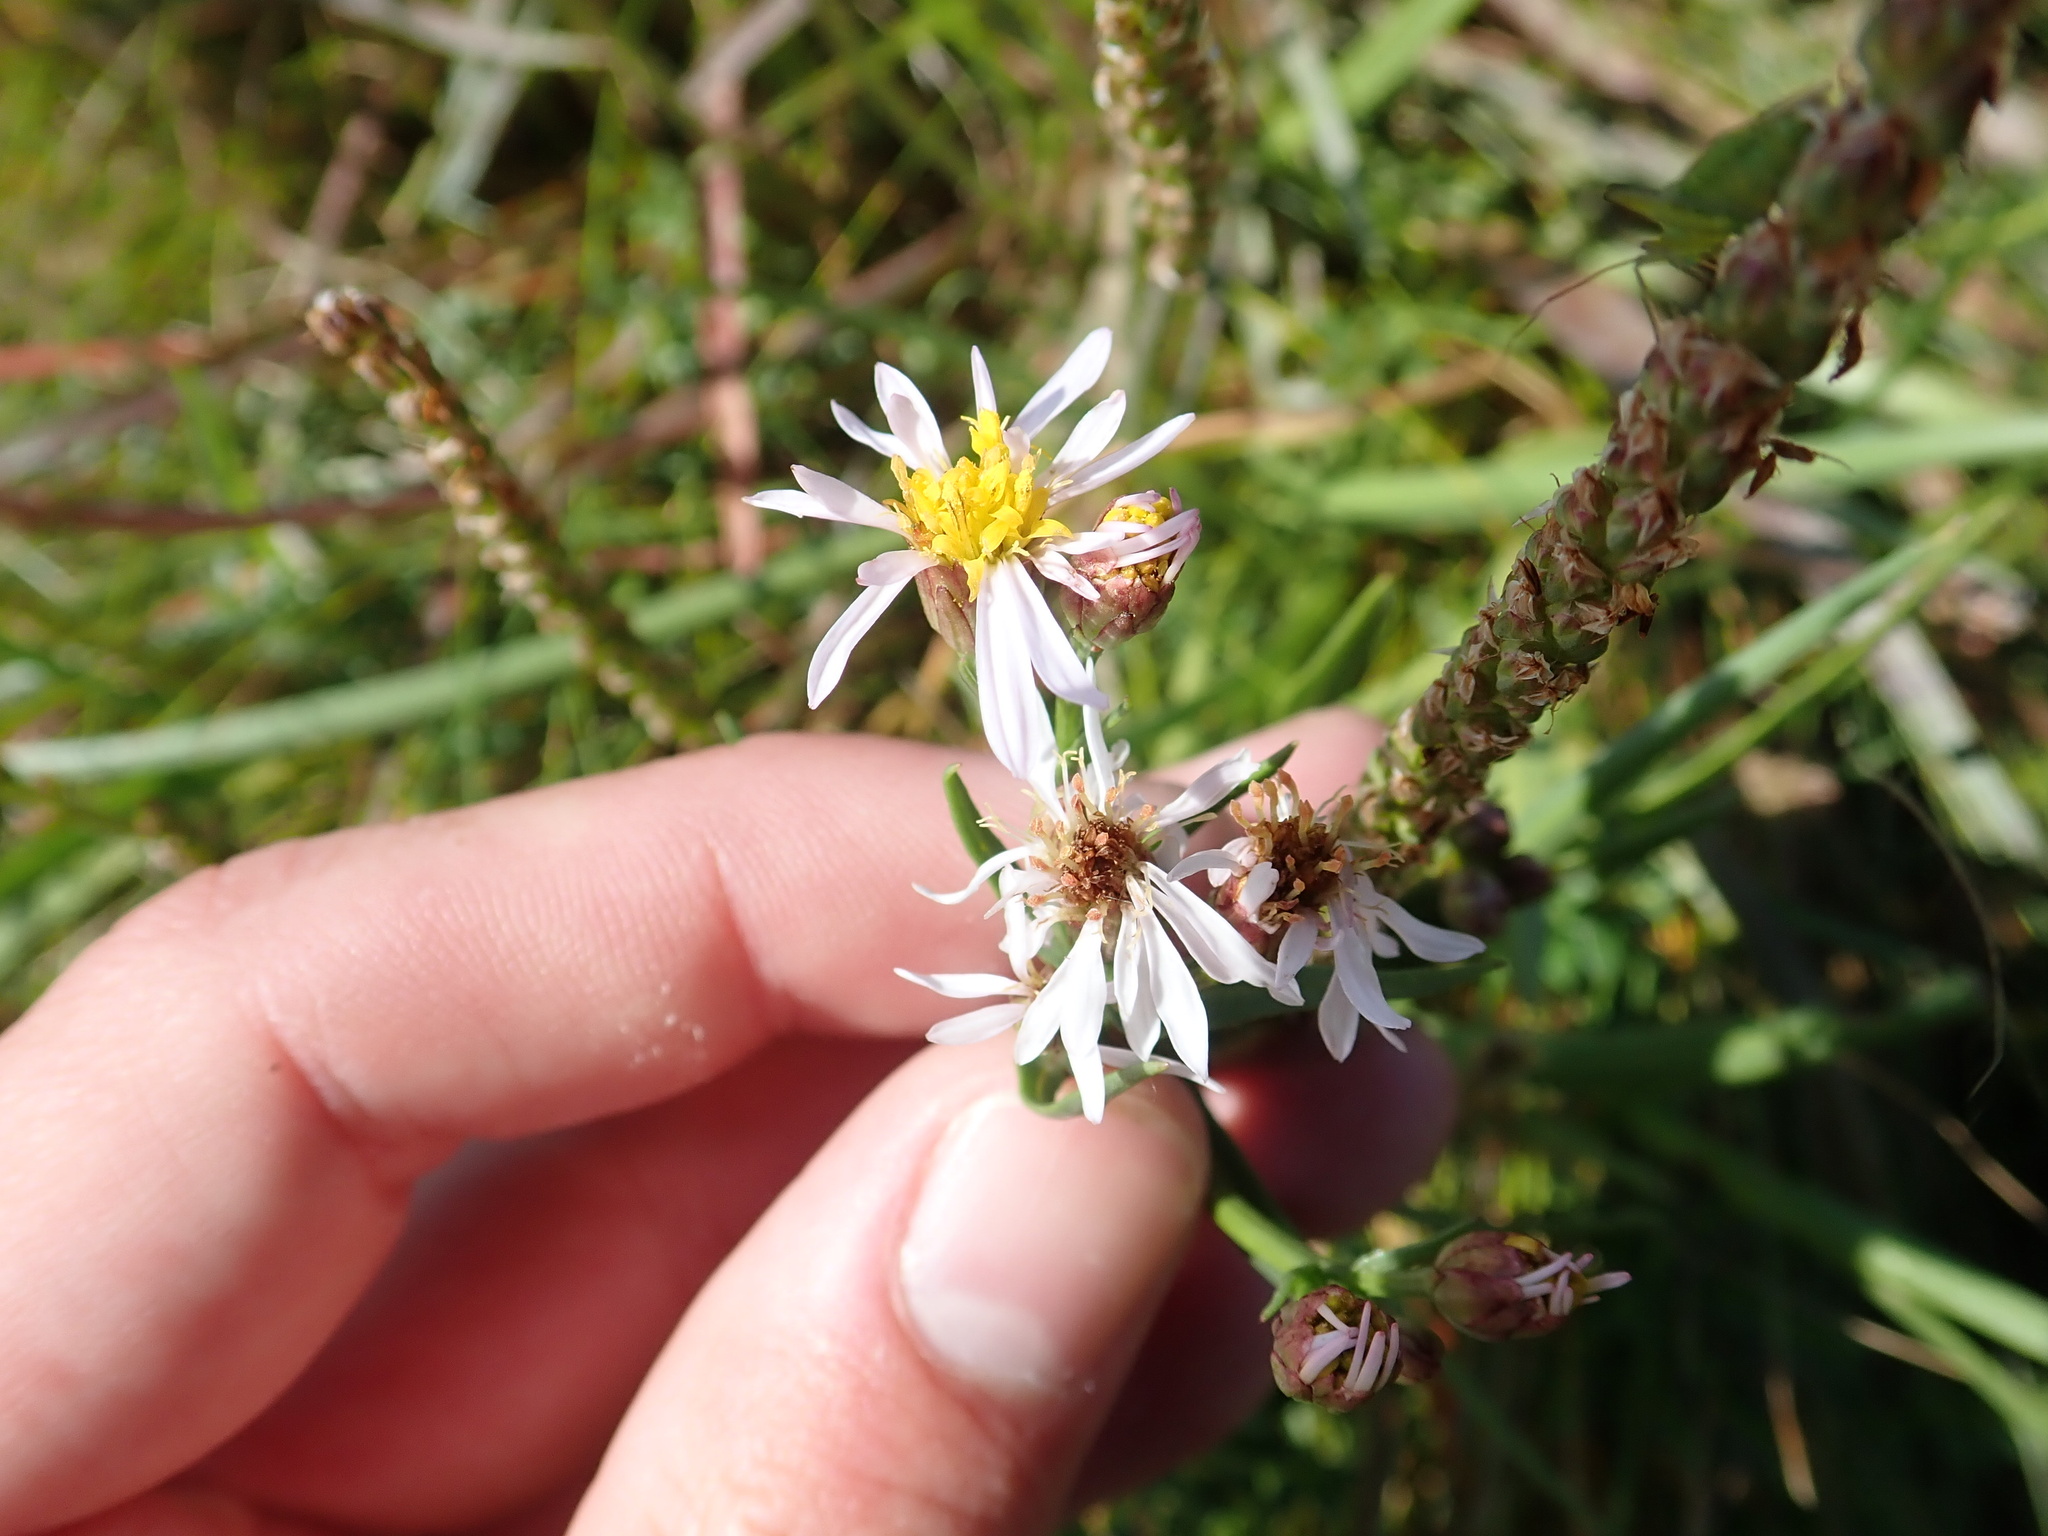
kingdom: Plantae
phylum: Tracheophyta
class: Magnoliopsida
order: Asterales
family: Asteraceae
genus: Tripolium
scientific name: Tripolium pannonicum
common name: Sea aster
